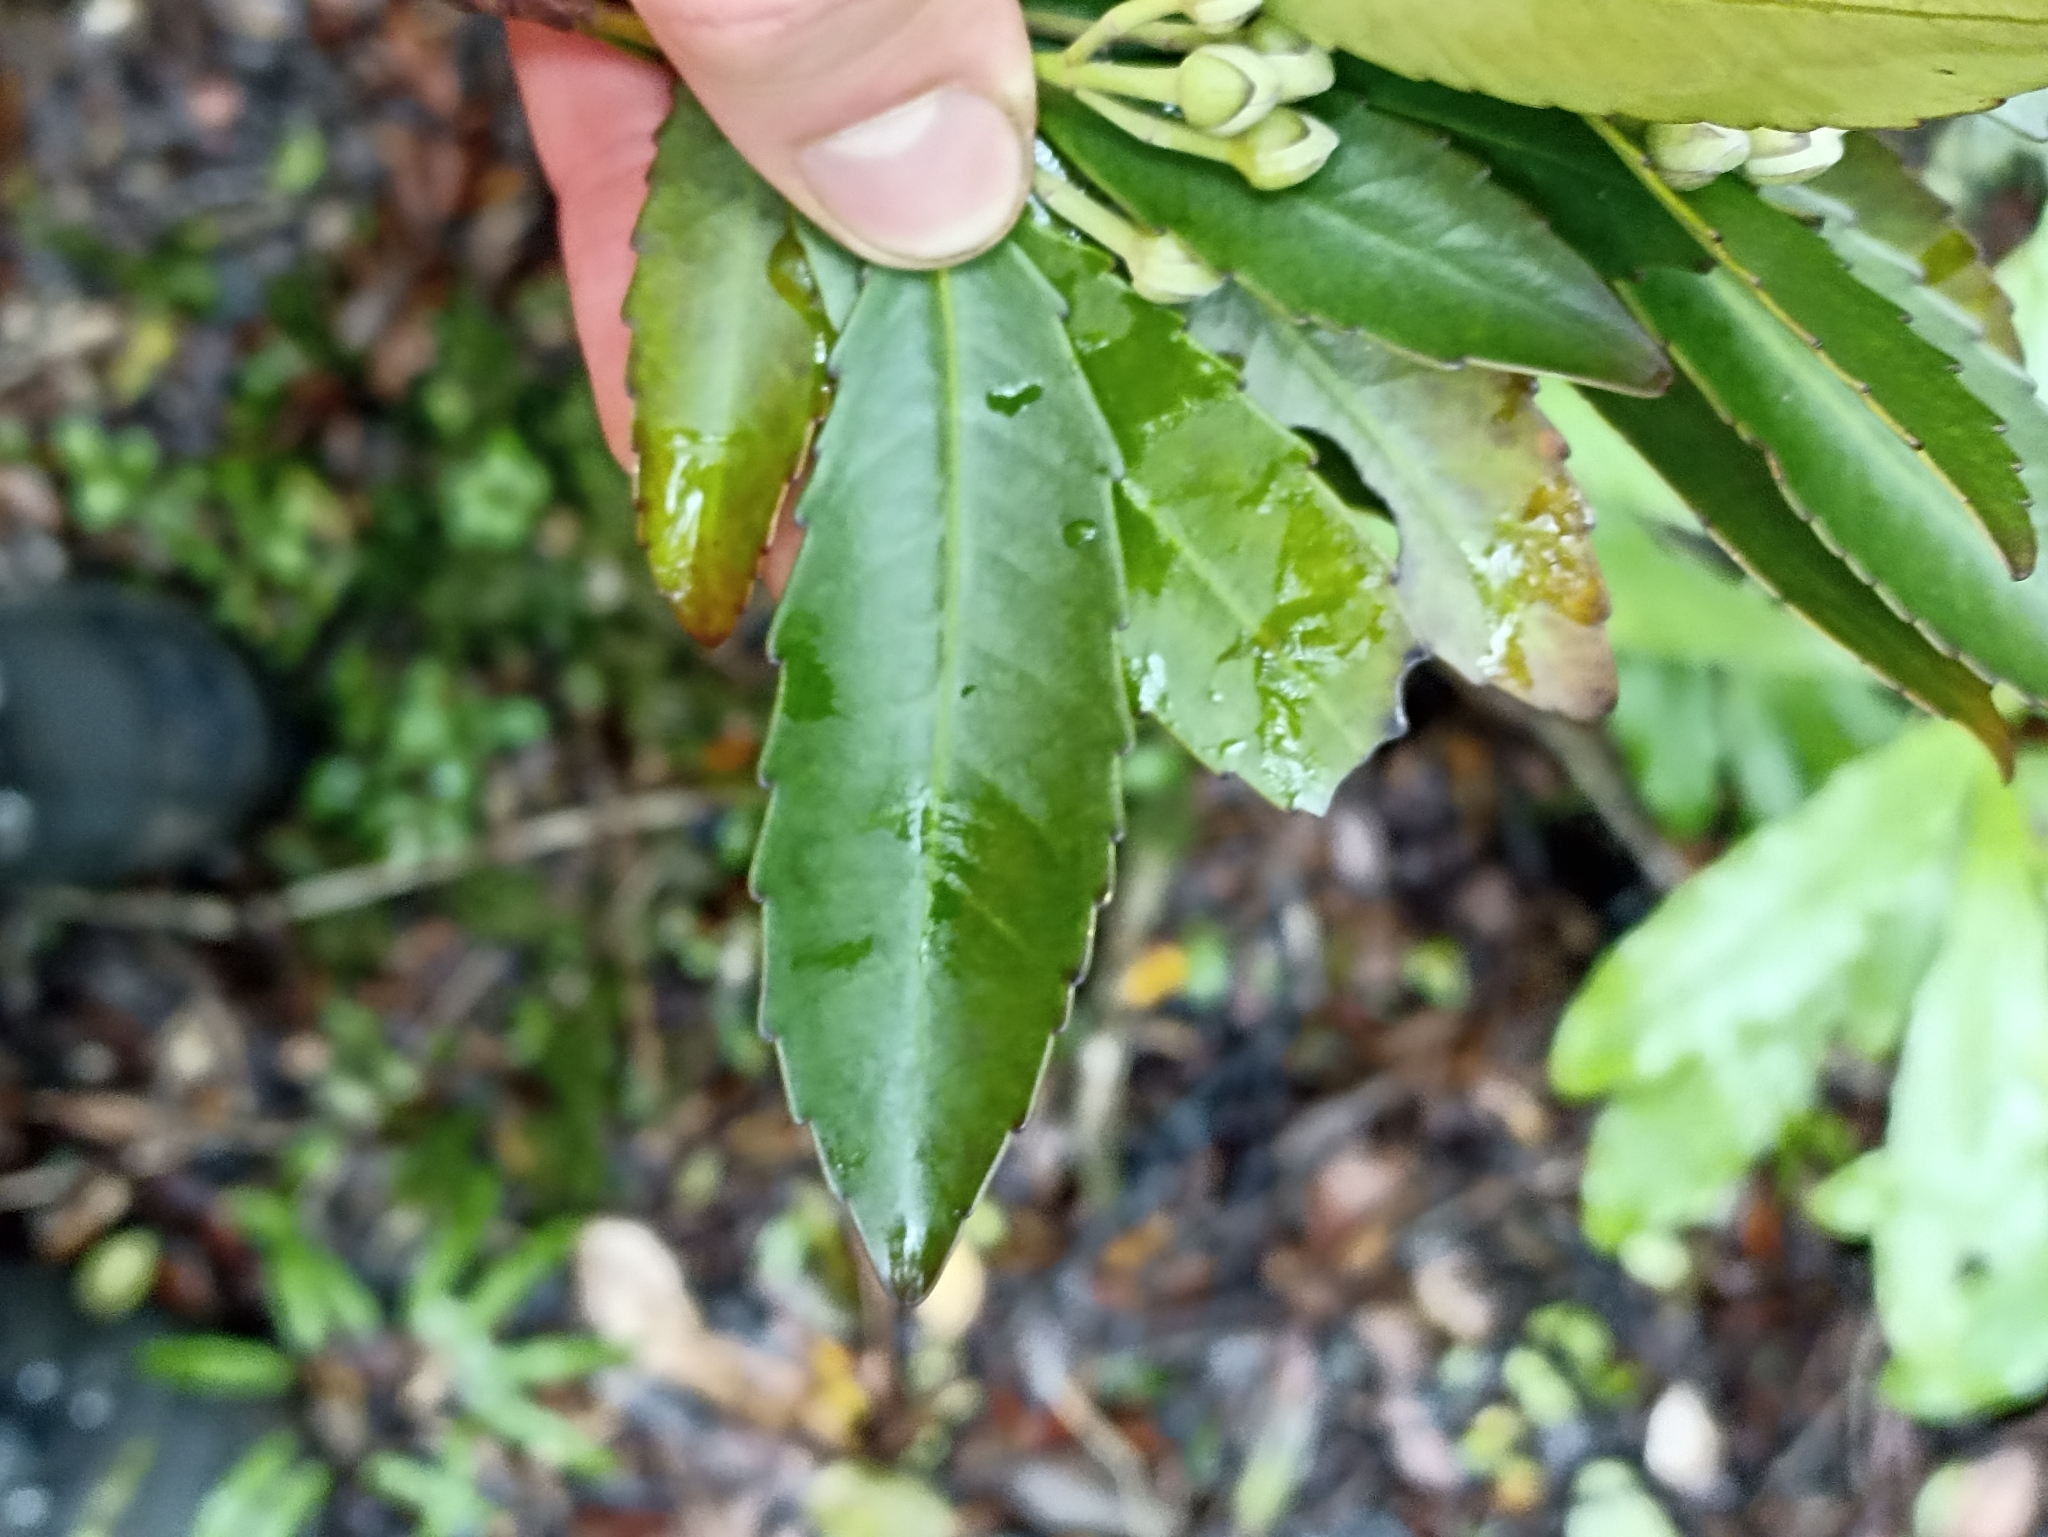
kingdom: Plantae
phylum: Tracheophyta
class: Magnoliopsida
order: Crossosomatales
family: Ixerbaceae
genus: Ixerba
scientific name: Ixerba brexioides
